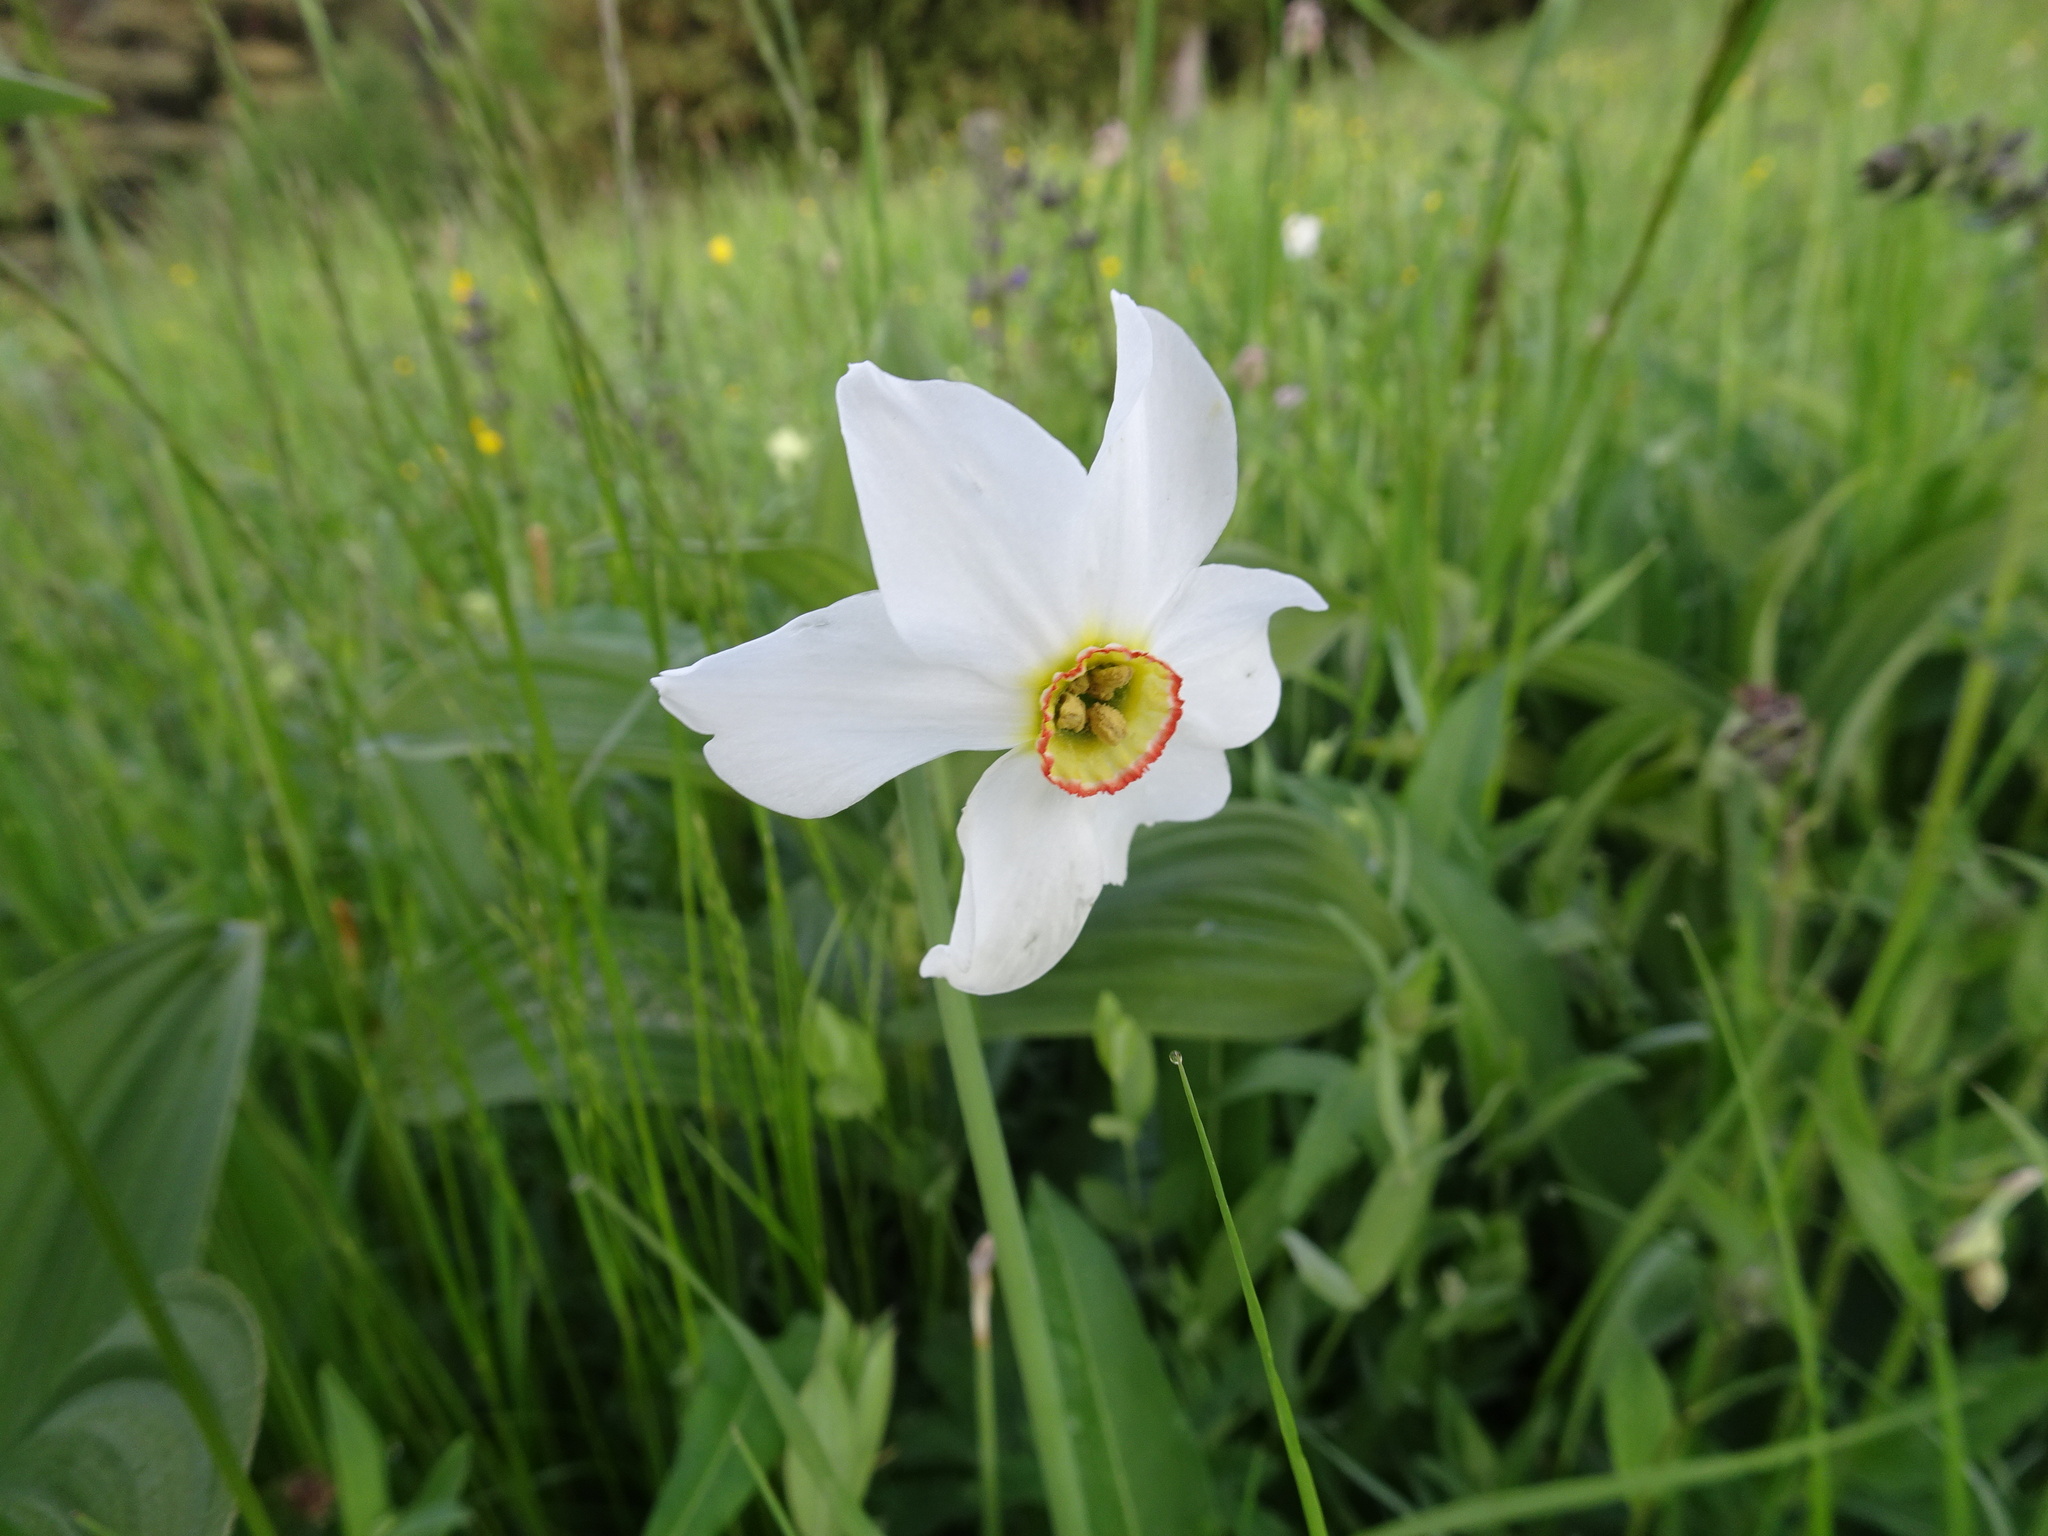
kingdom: Plantae
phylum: Tracheophyta
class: Liliopsida
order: Asparagales
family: Amaryllidaceae
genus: Narcissus
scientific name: Narcissus poeticus
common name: Pheasant's-eye daffodil
